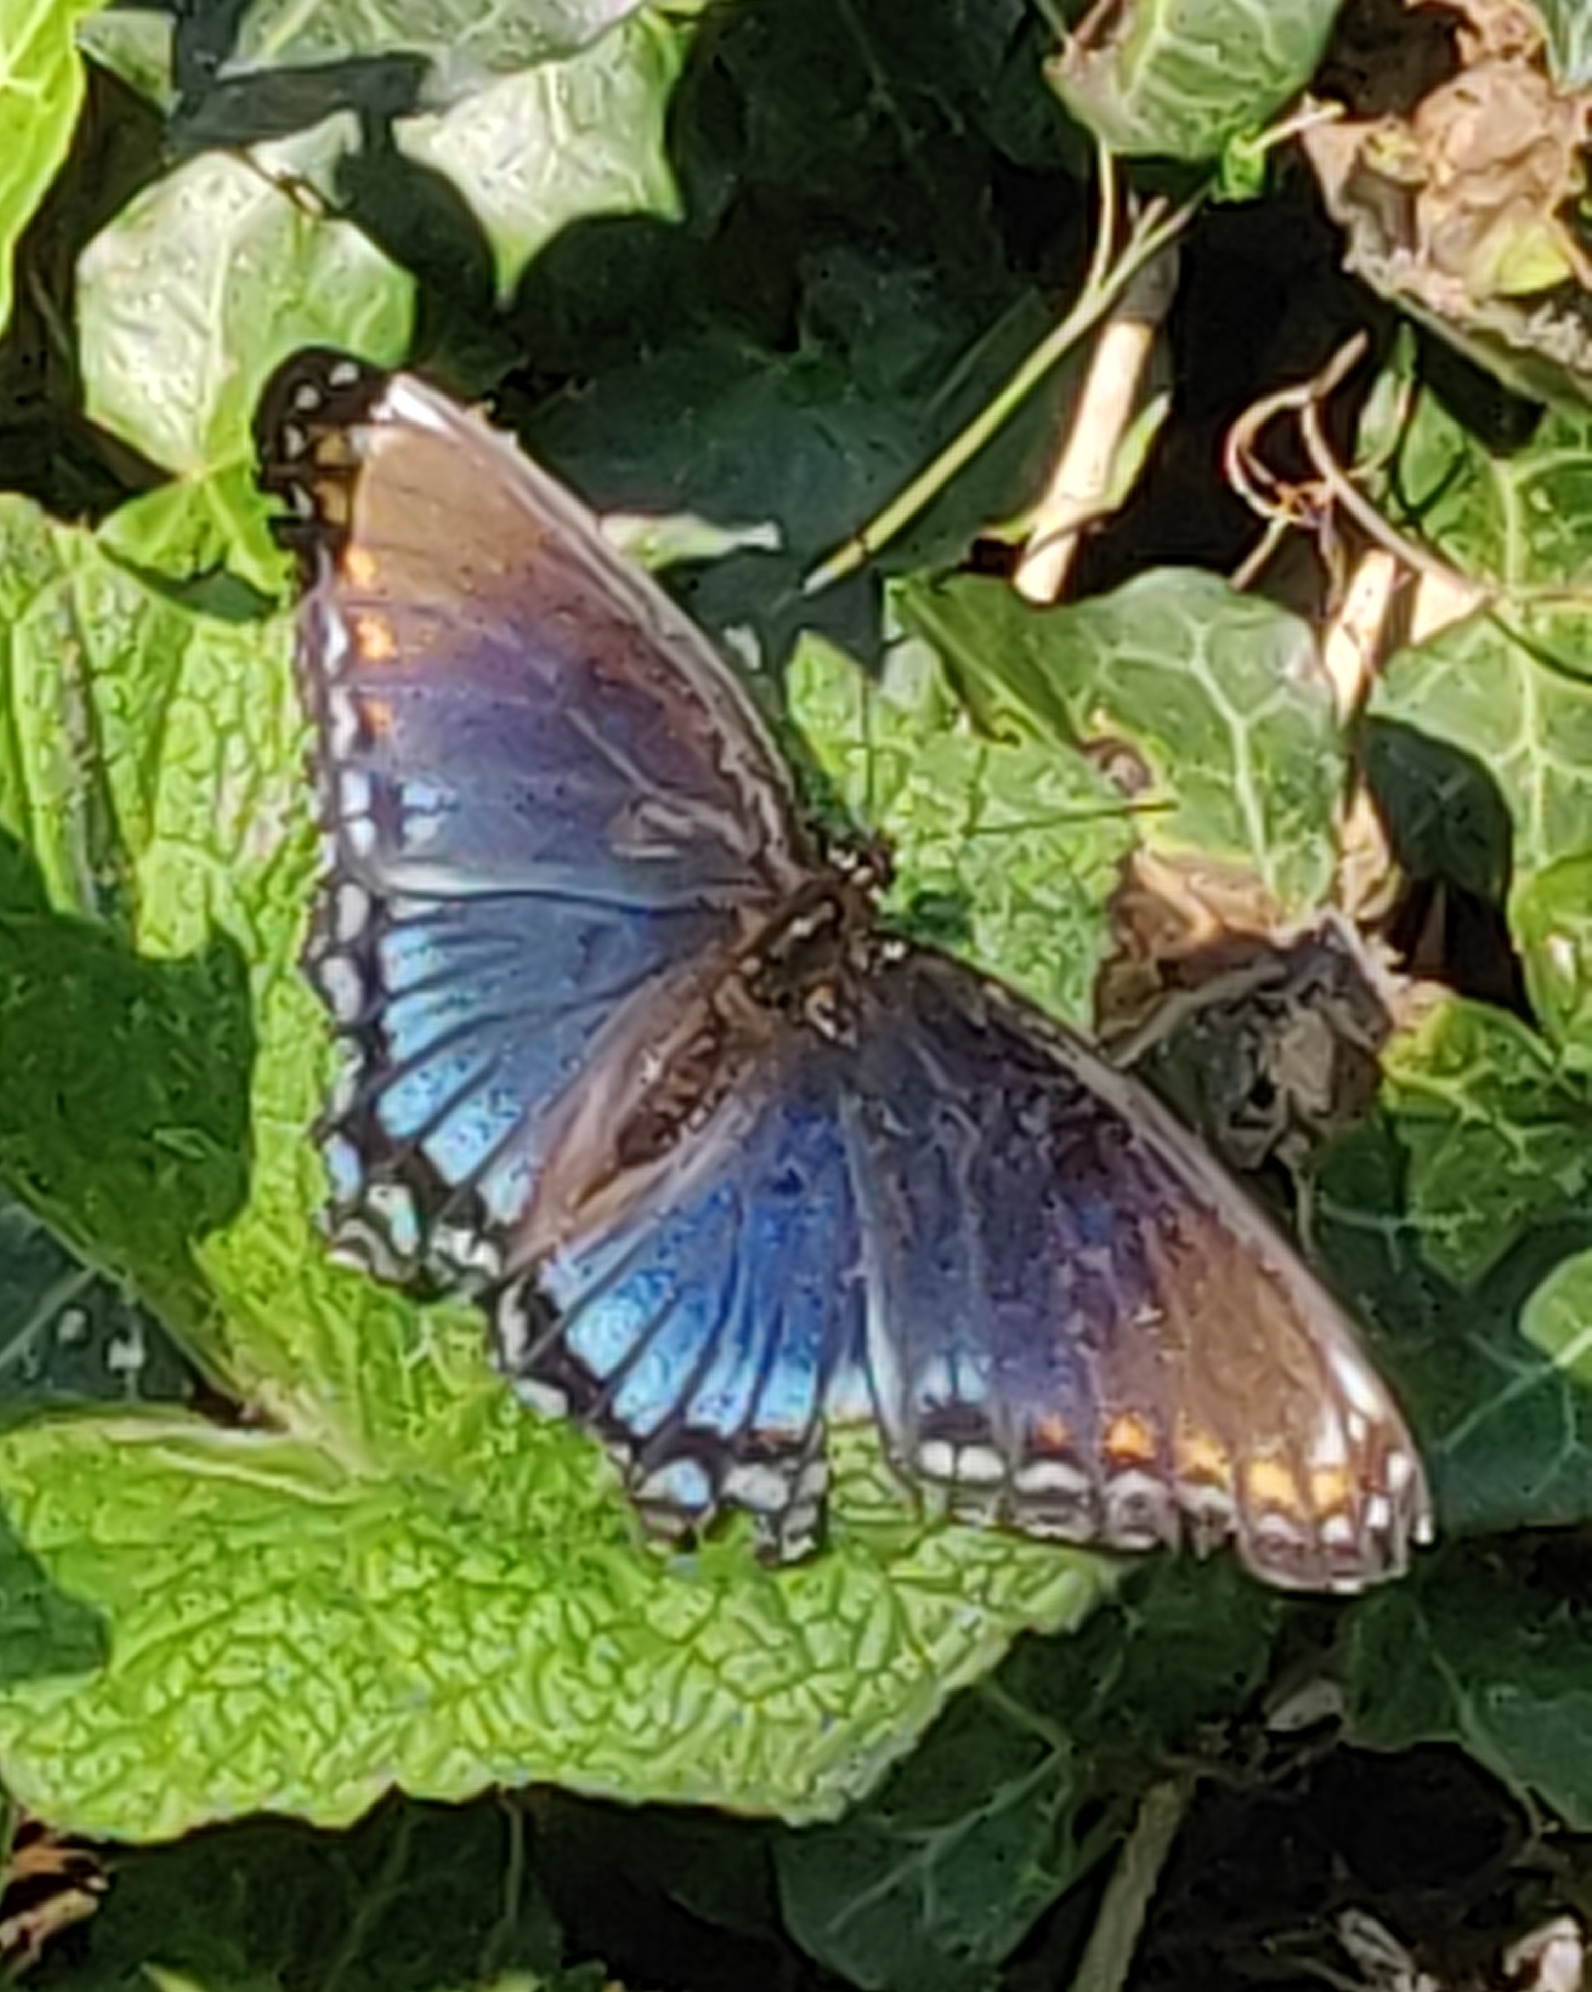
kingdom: Animalia
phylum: Arthropoda
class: Insecta
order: Lepidoptera
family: Nymphalidae
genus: Limenitis
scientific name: Limenitis astyanax
